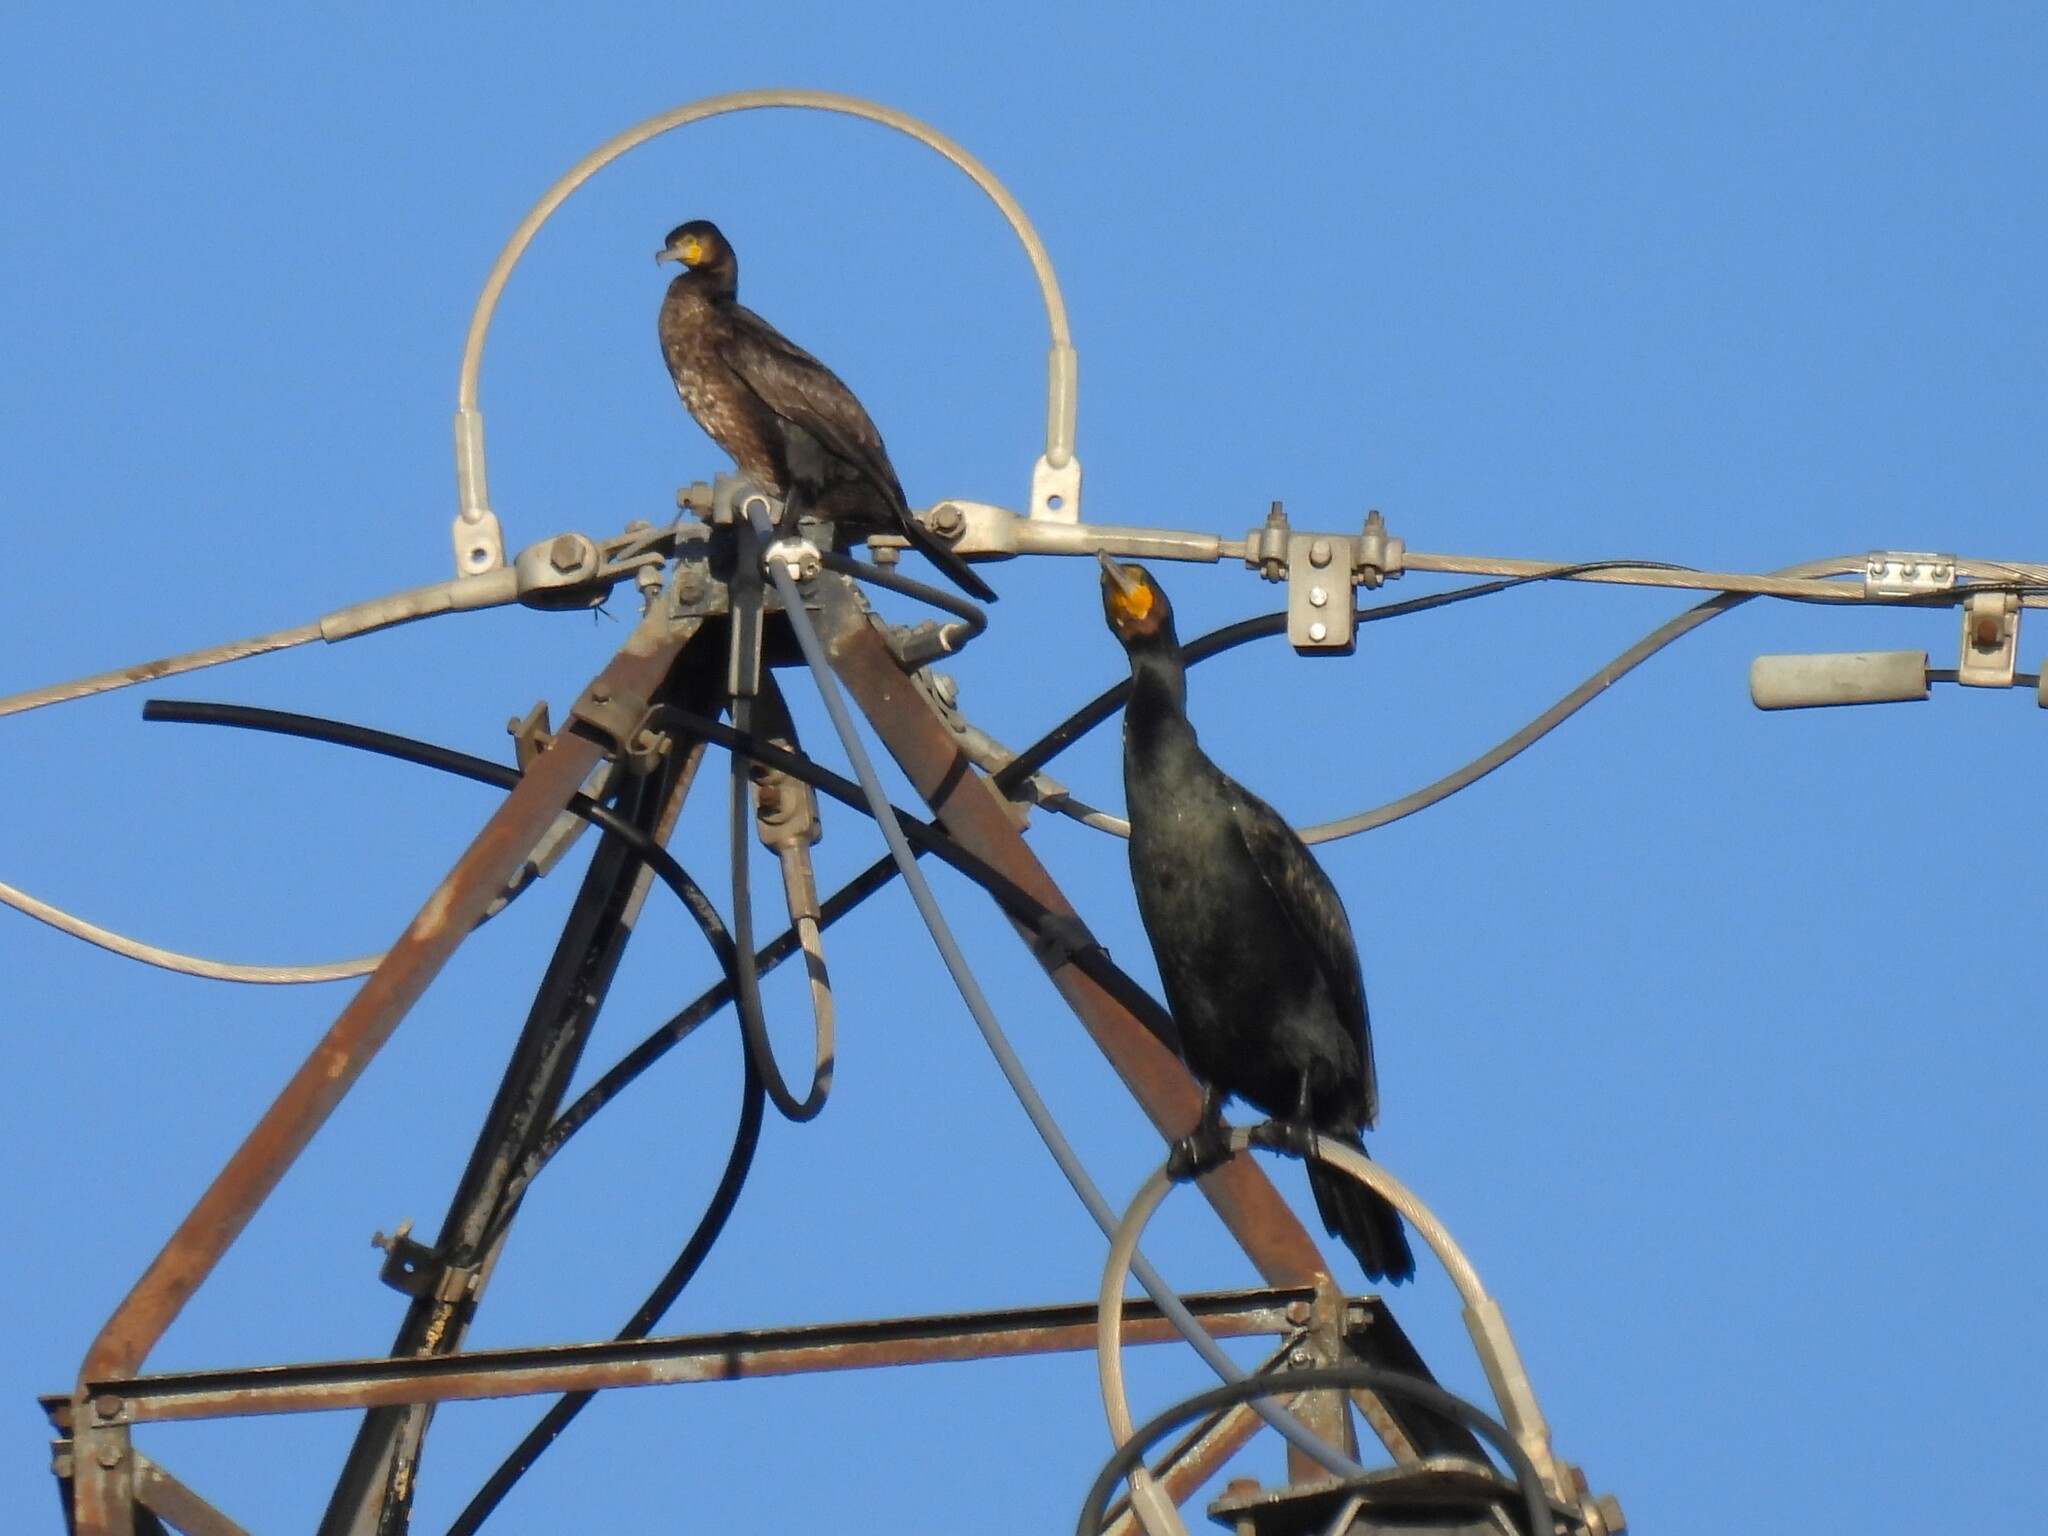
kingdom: Animalia
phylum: Chordata
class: Aves
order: Suliformes
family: Phalacrocoracidae
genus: Phalacrocorax
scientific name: Phalacrocorax carbo
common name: Great cormorant
